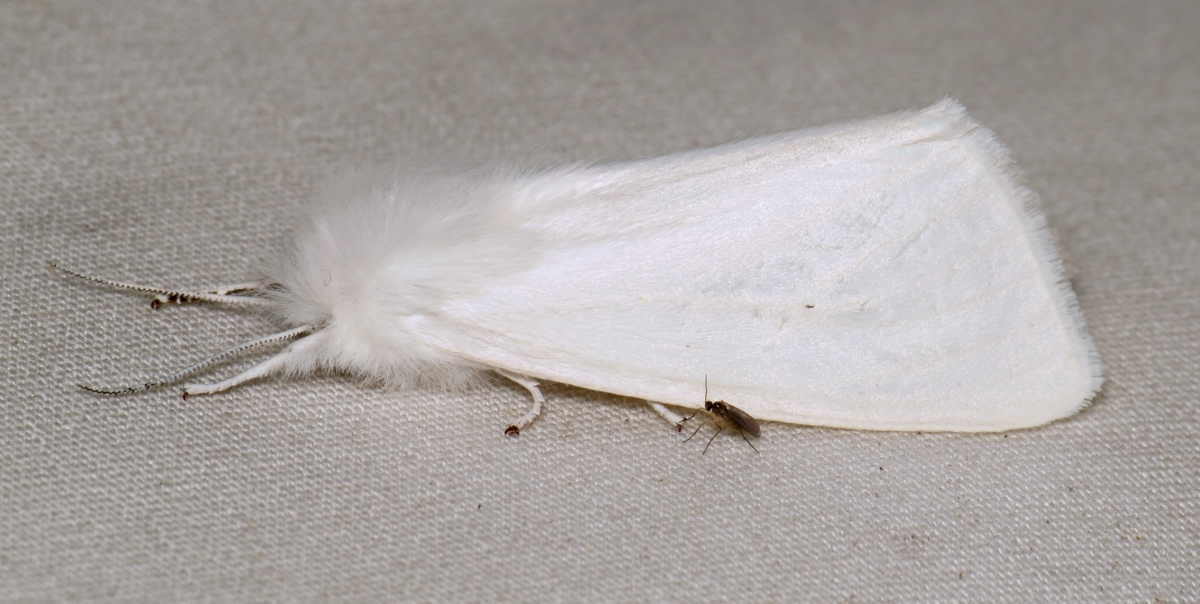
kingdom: Animalia
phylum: Arthropoda
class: Insecta
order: Lepidoptera
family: Erebidae
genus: Spilosoma
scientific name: Spilosoma virginica
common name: Virginia tiger moth
